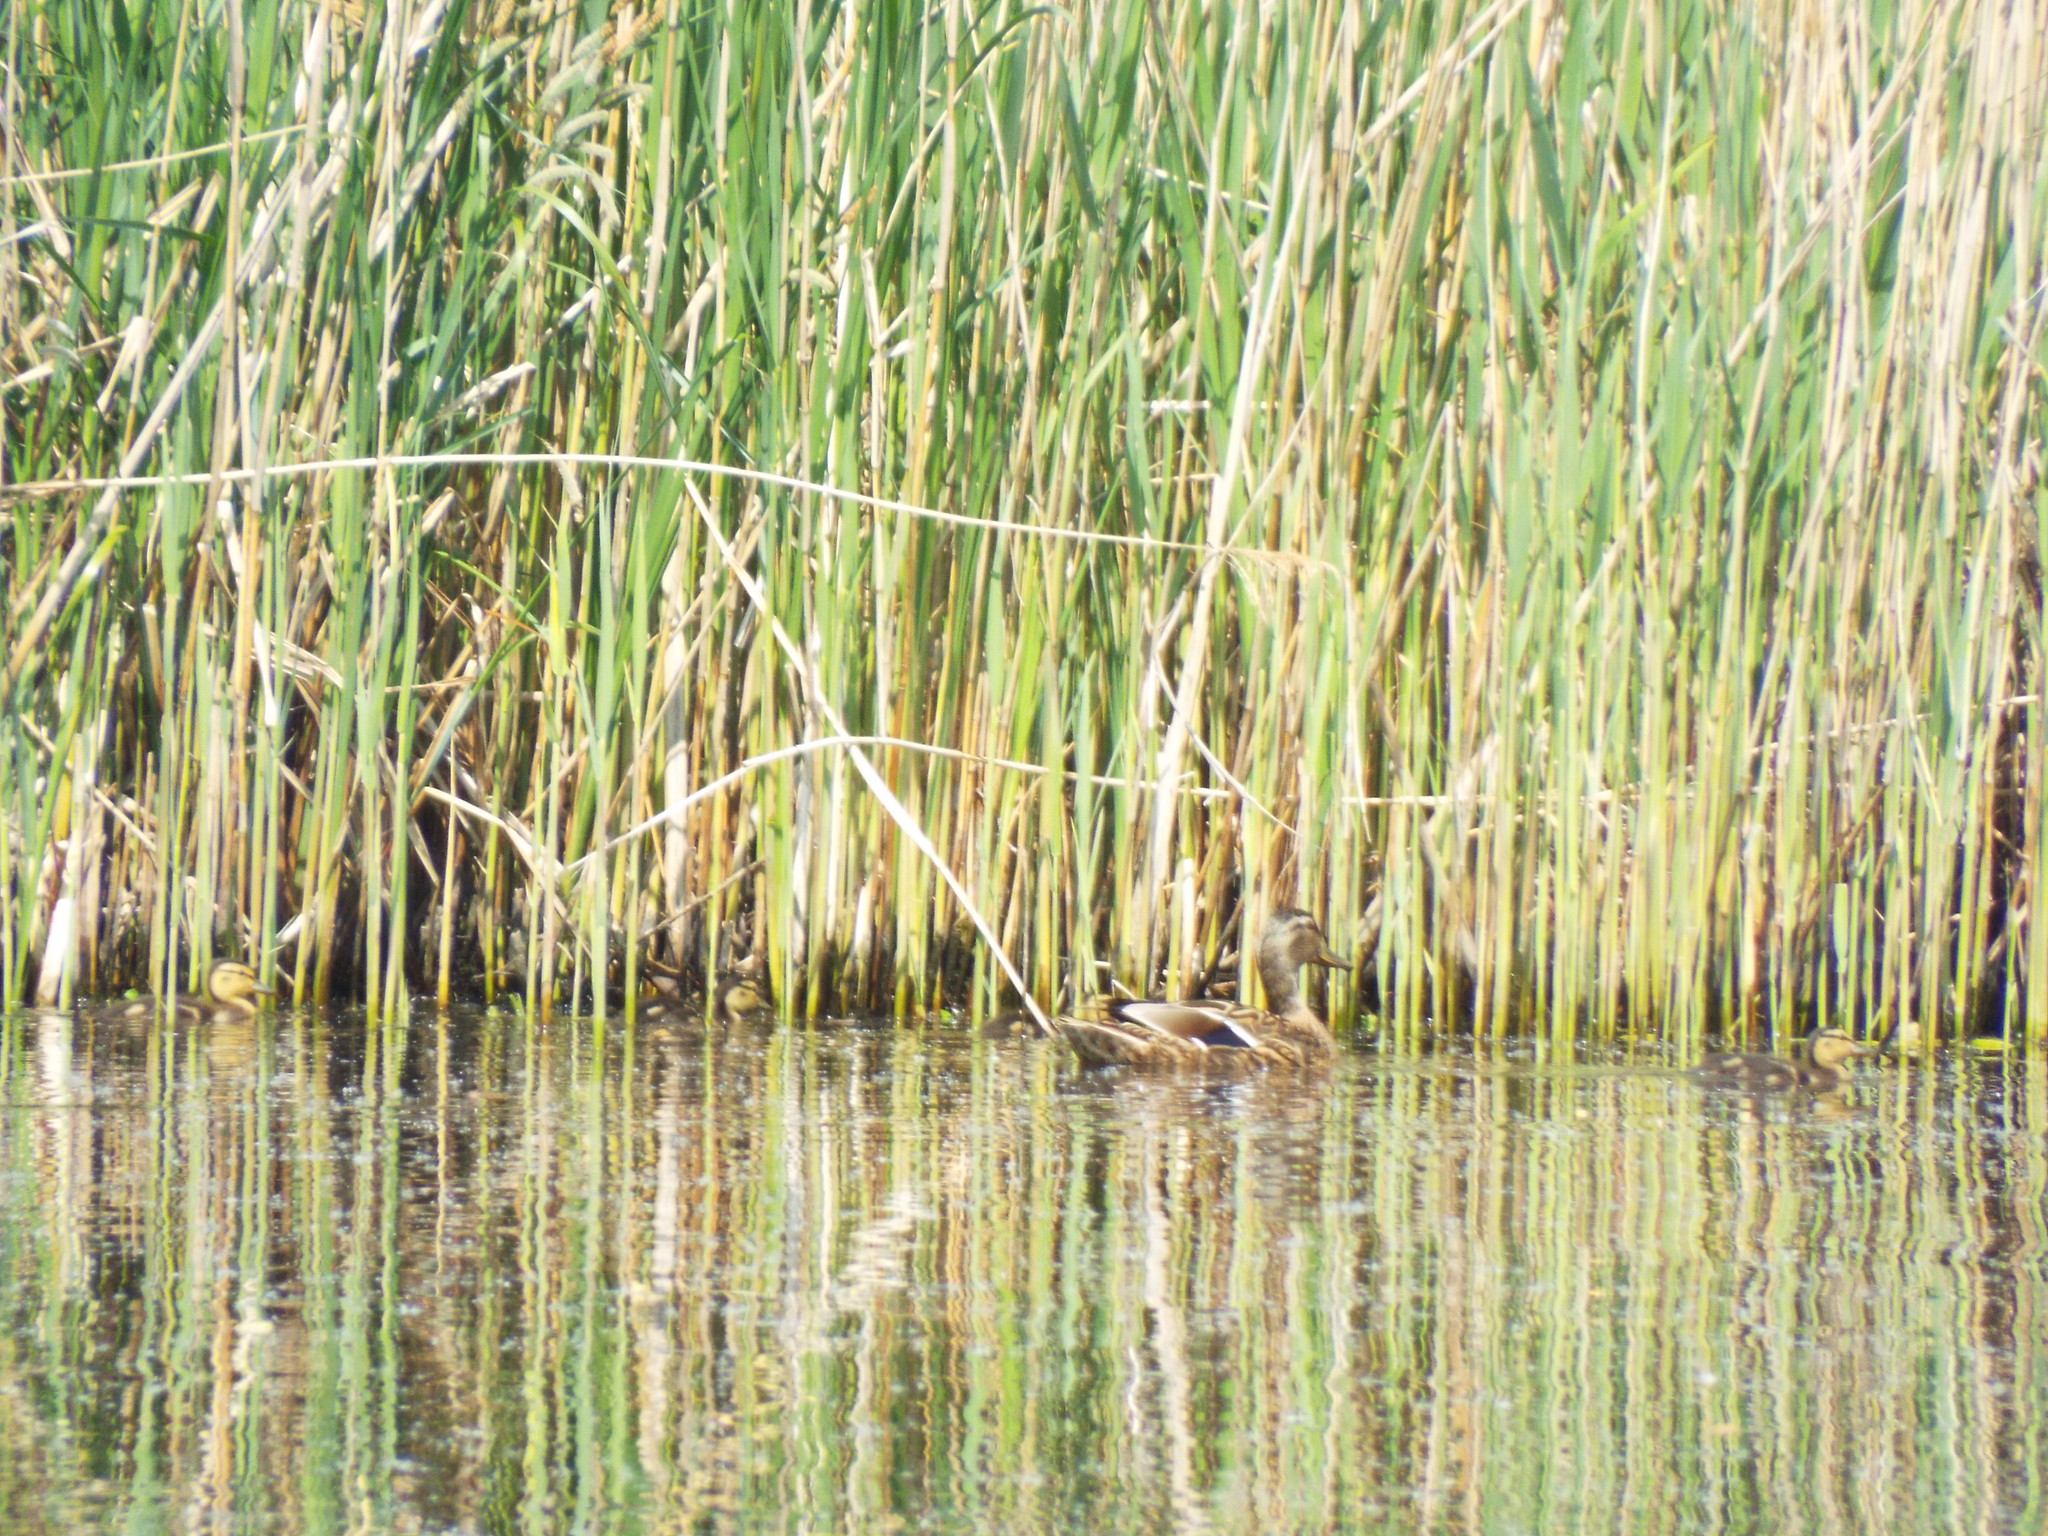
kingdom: Animalia
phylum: Chordata
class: Aves
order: Anseriformes
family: Anatidae
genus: Anas
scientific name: Anas platyrhynchos
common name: Mallard
